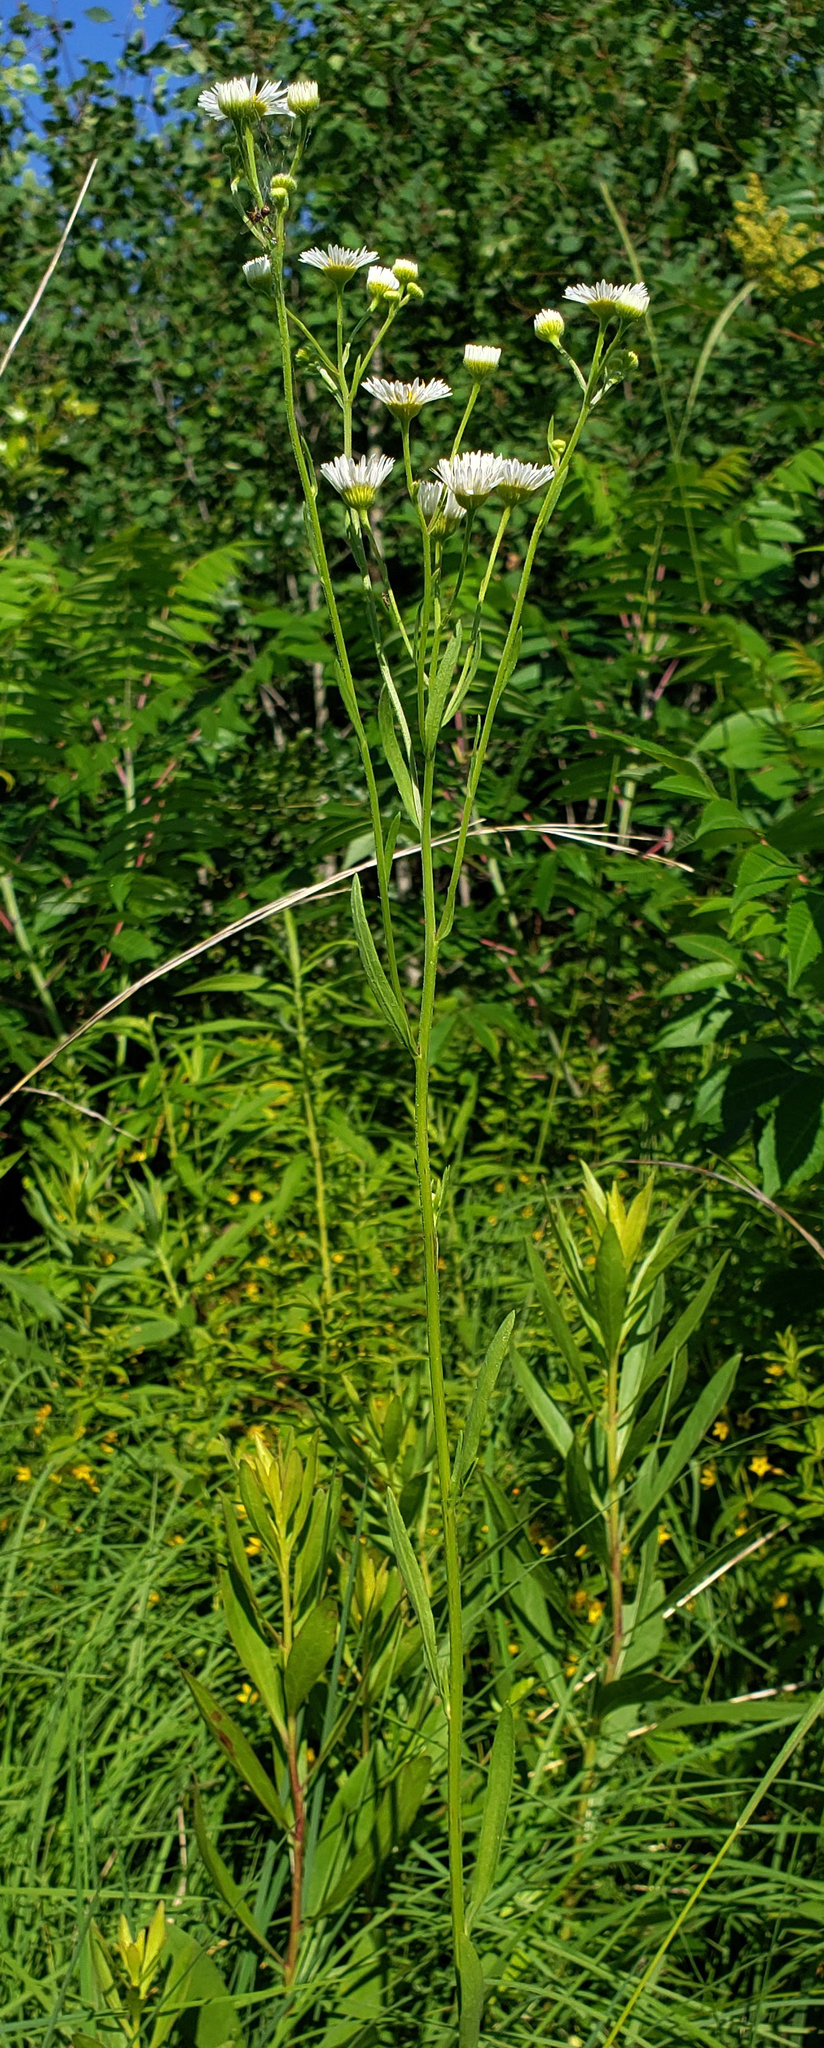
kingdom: Plantae
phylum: Tracheophyta
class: Magnoliopsida
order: Asterales
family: Asteraceae
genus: Erigeron
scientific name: Erigeron strigosus
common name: Common eastern fleabane
